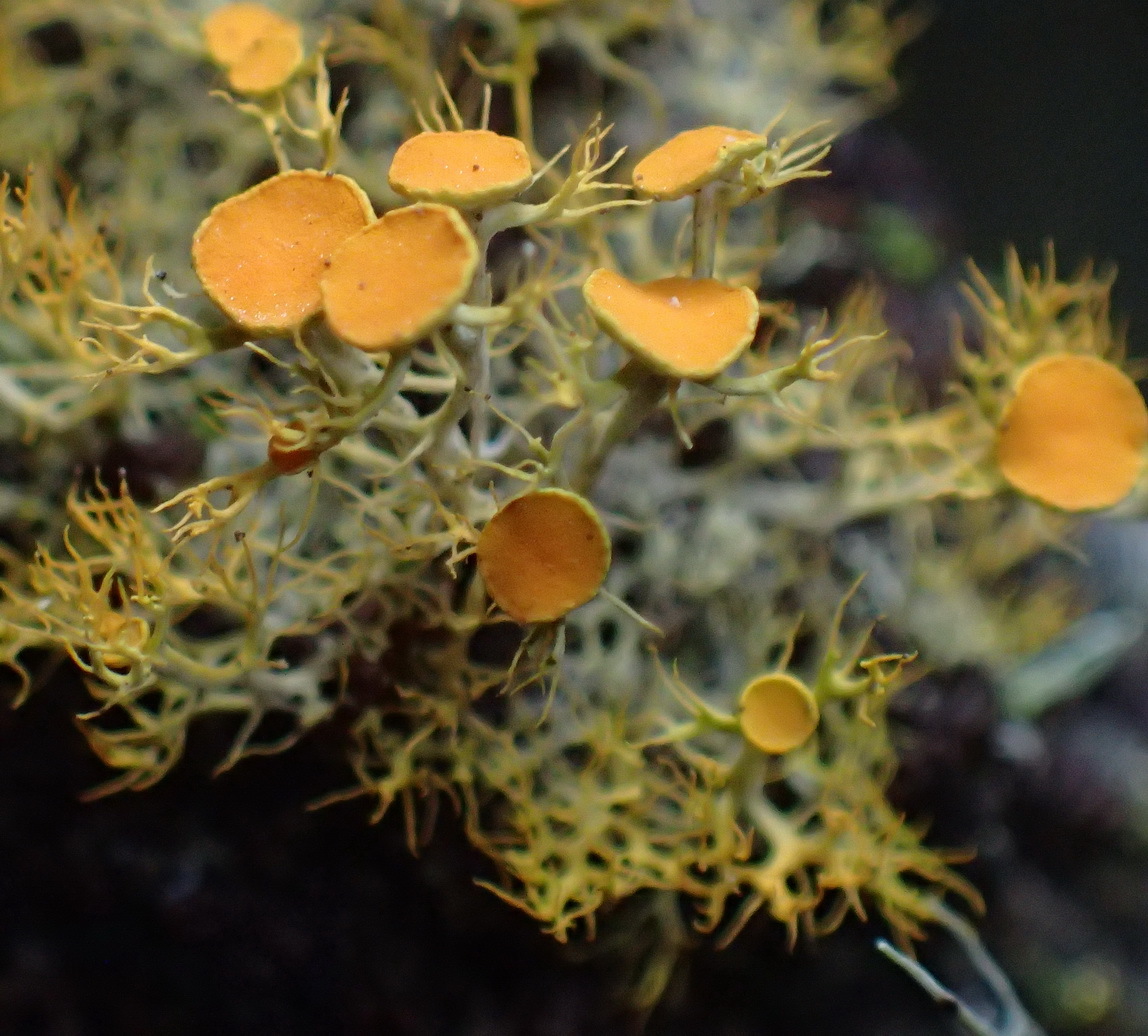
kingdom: Fungi
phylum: Ascomycota
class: Lecanoromycetes
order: Teloschistales
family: Teloschistaceae
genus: Teloschistes
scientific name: Teloschistes exilis
